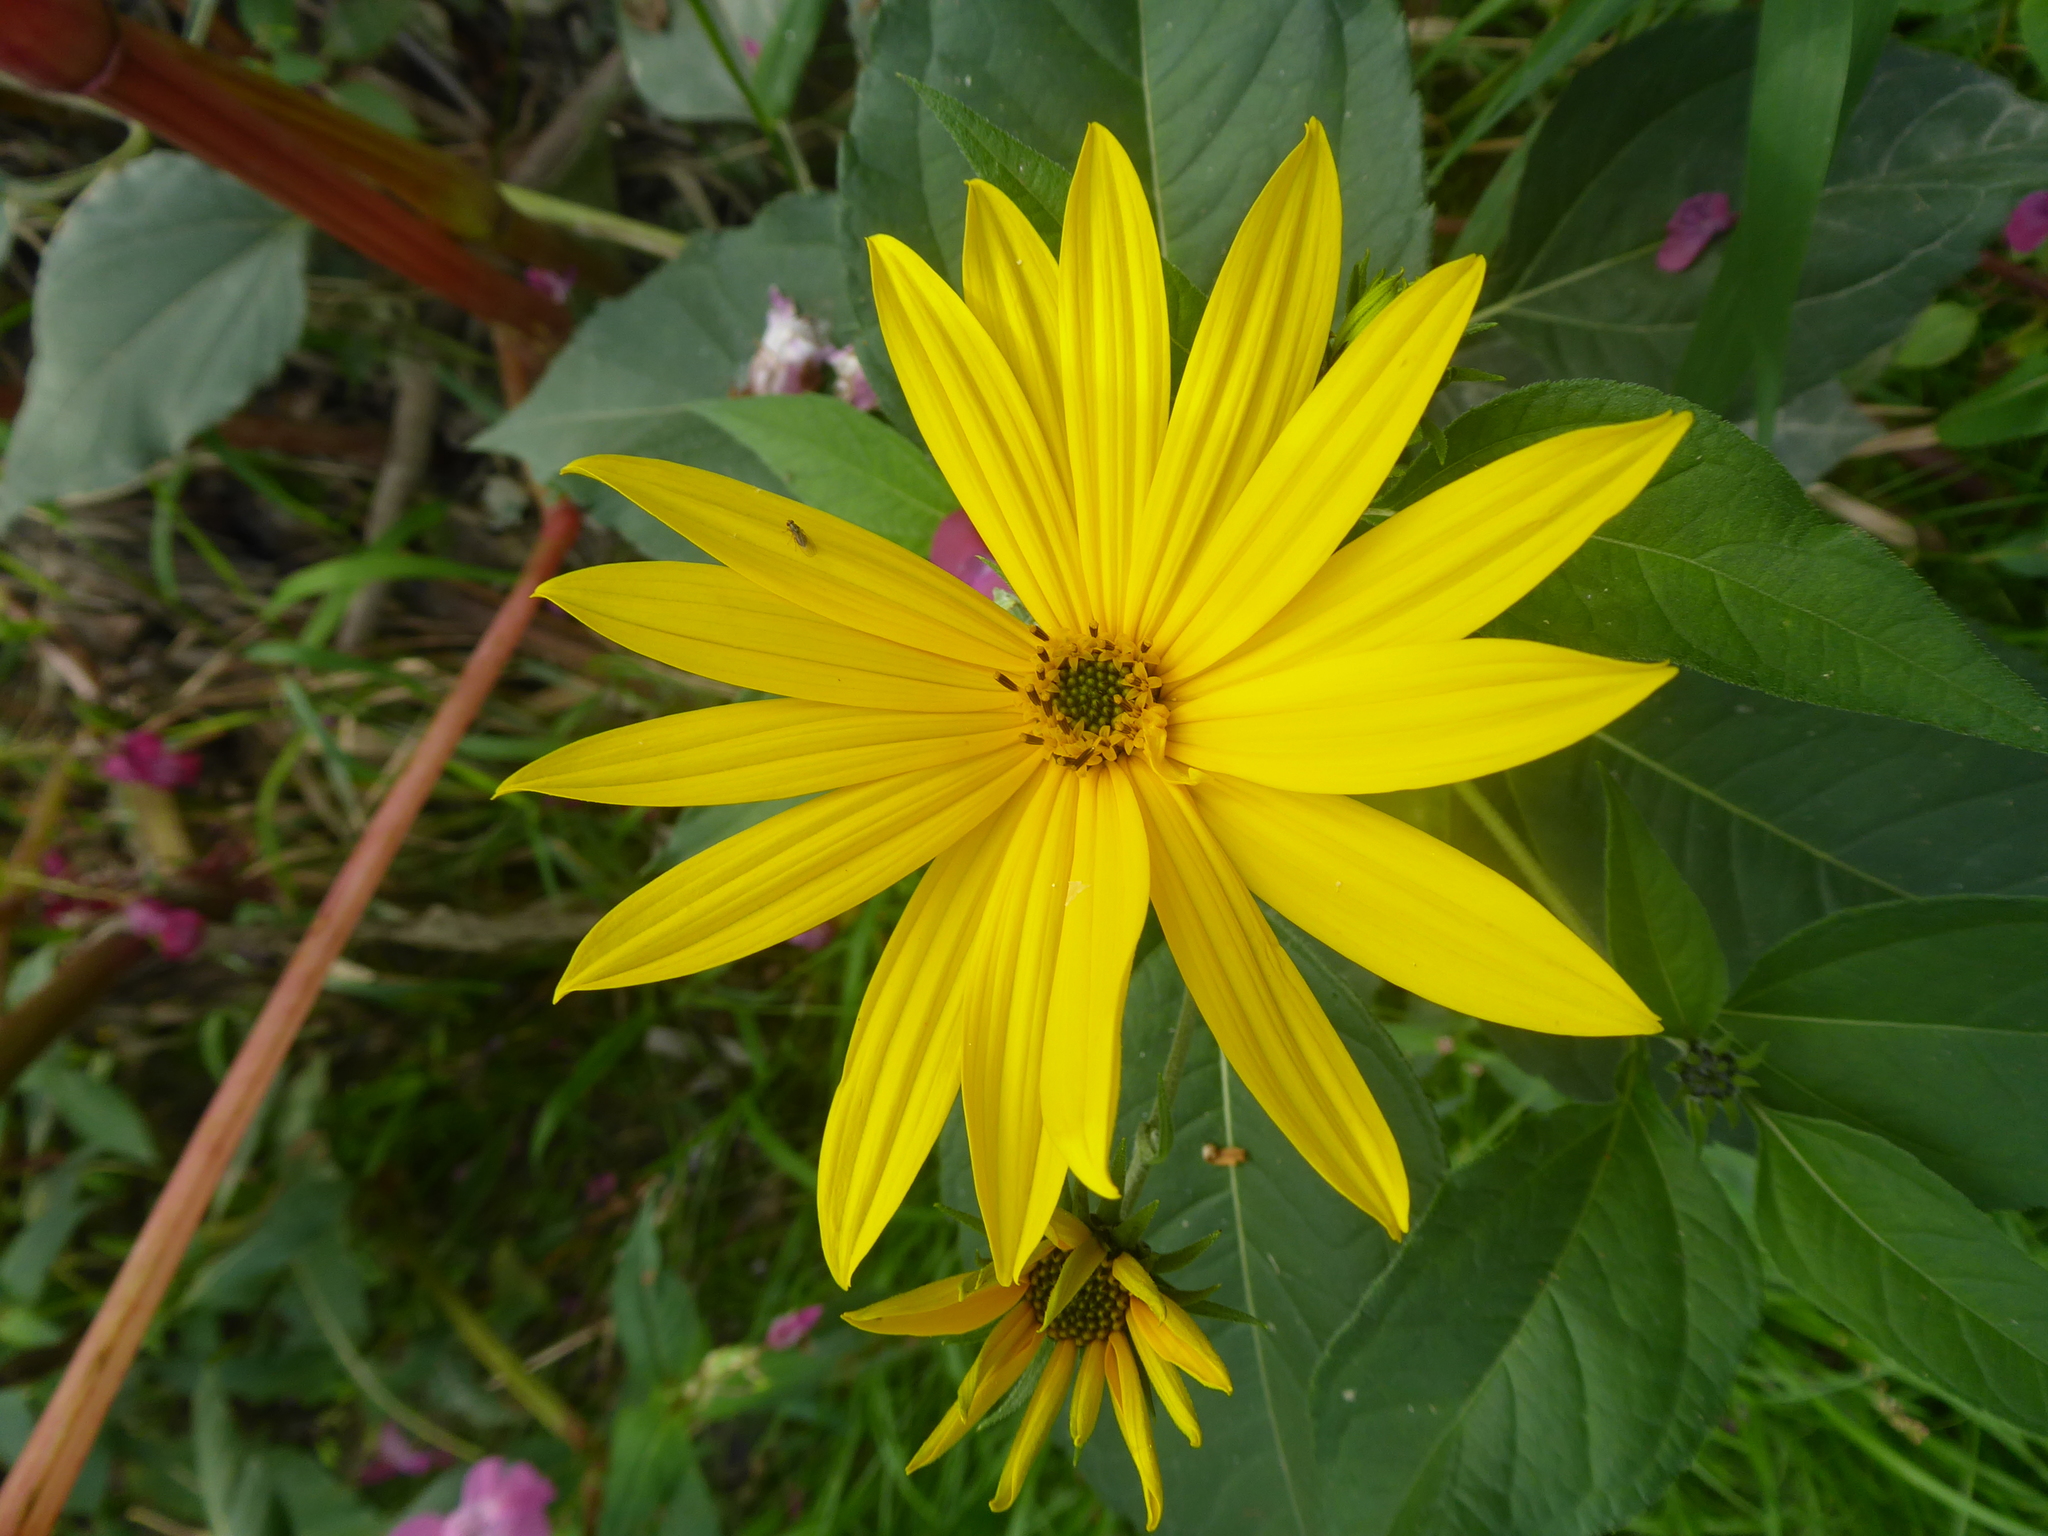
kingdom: Plantae
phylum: Tracheophyta
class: Magnoliopsida
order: Asterales
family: Asteraceae
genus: Helianthus
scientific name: Helianthus tuberosus
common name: Jerusalem artichoke
